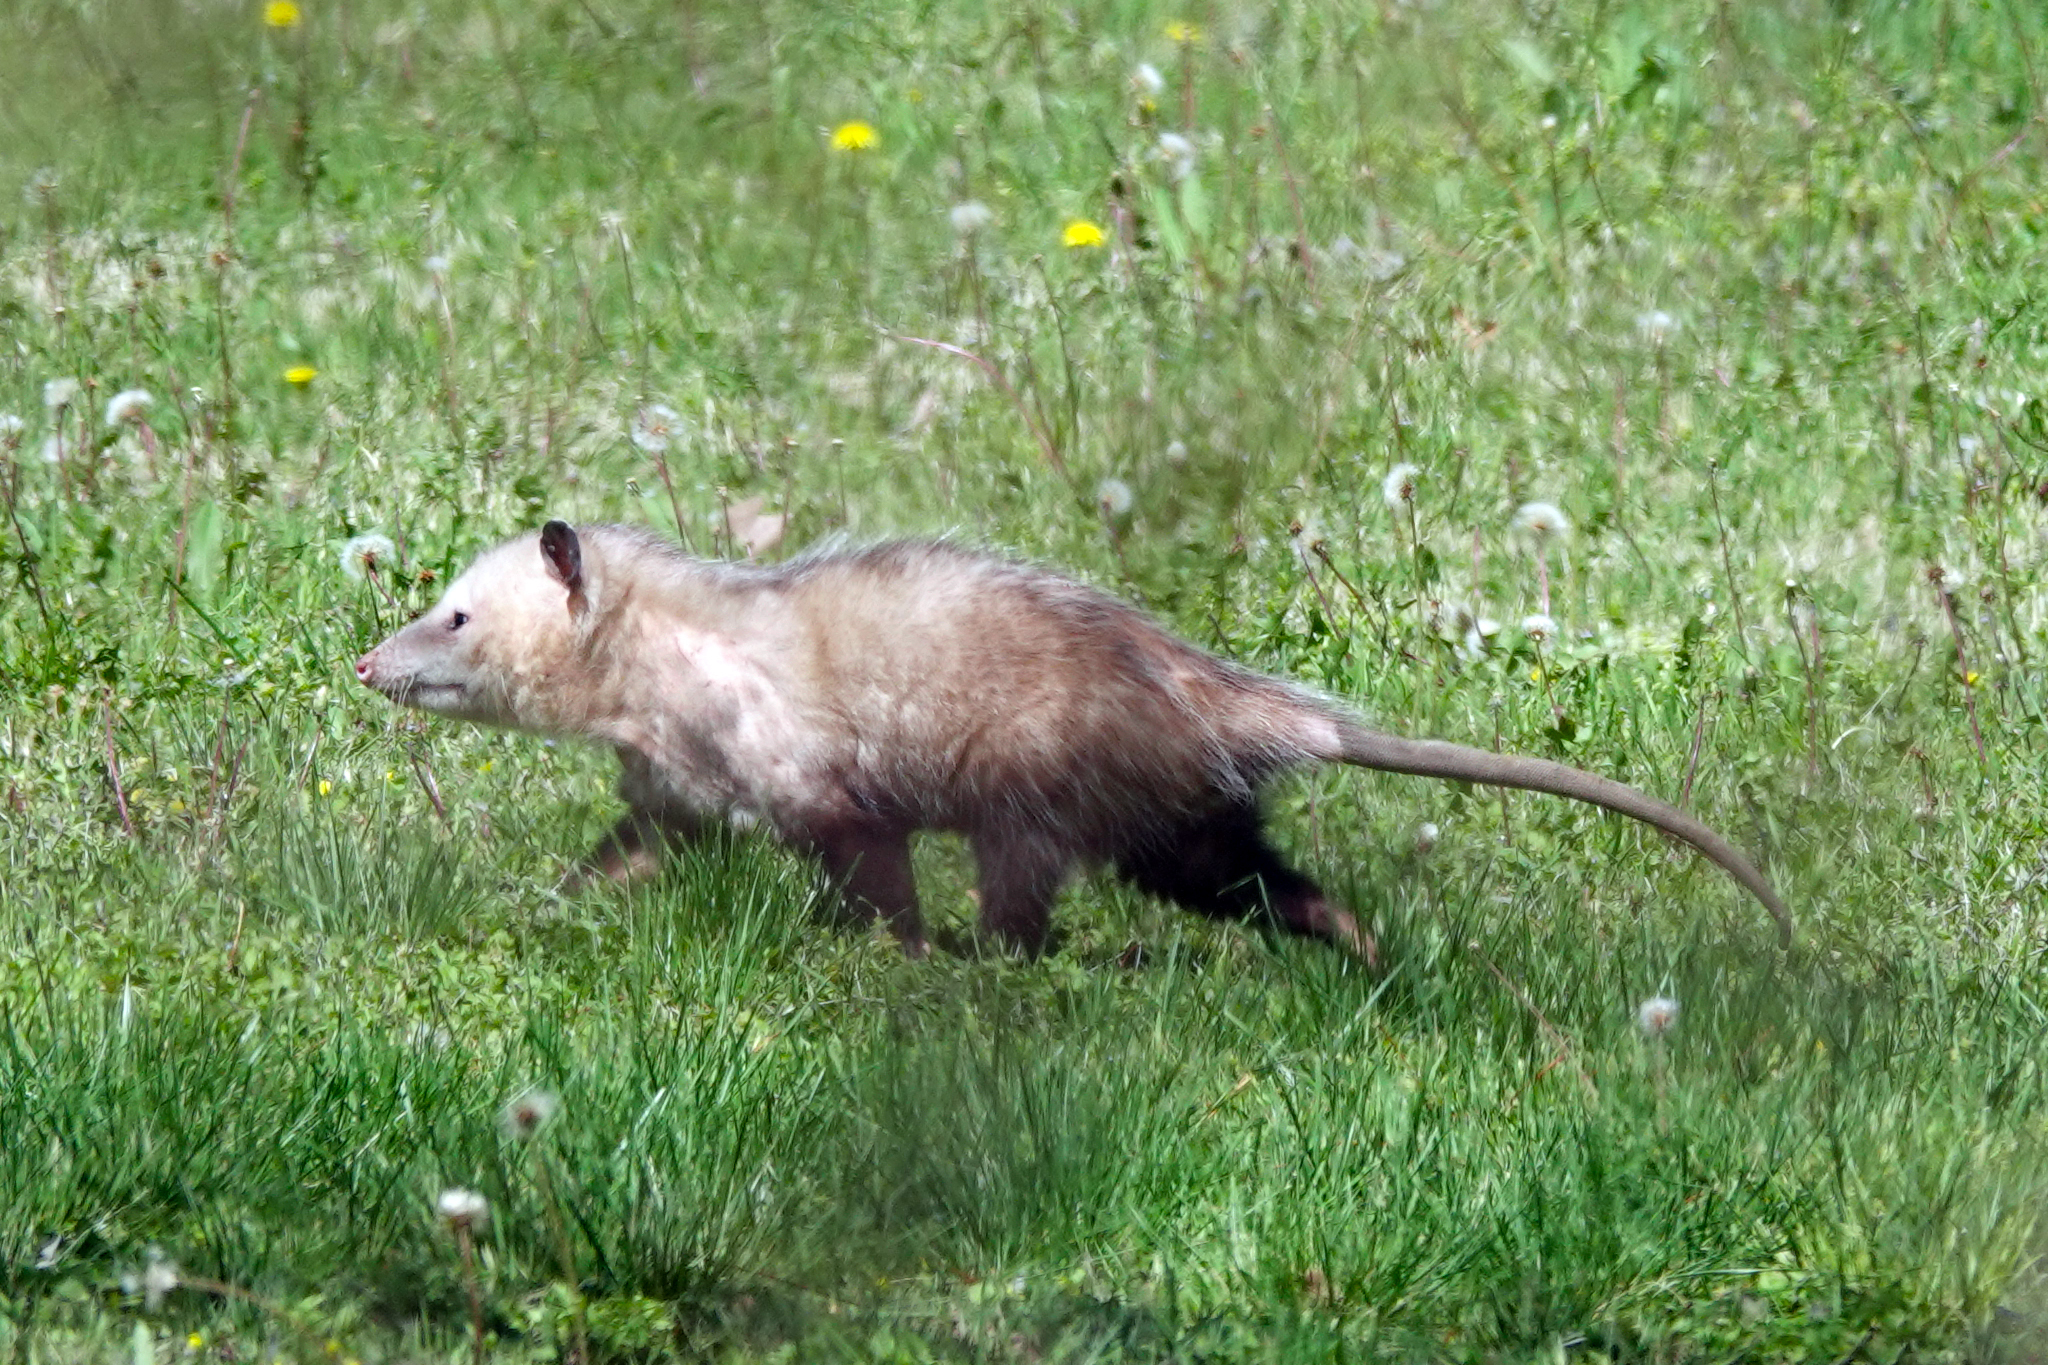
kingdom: Animalia
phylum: Chordata
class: Mammalia
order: Didelphimorphia
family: Didelphidae
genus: Didelphis
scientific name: Didelphis virginiana
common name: Virginia opossum
